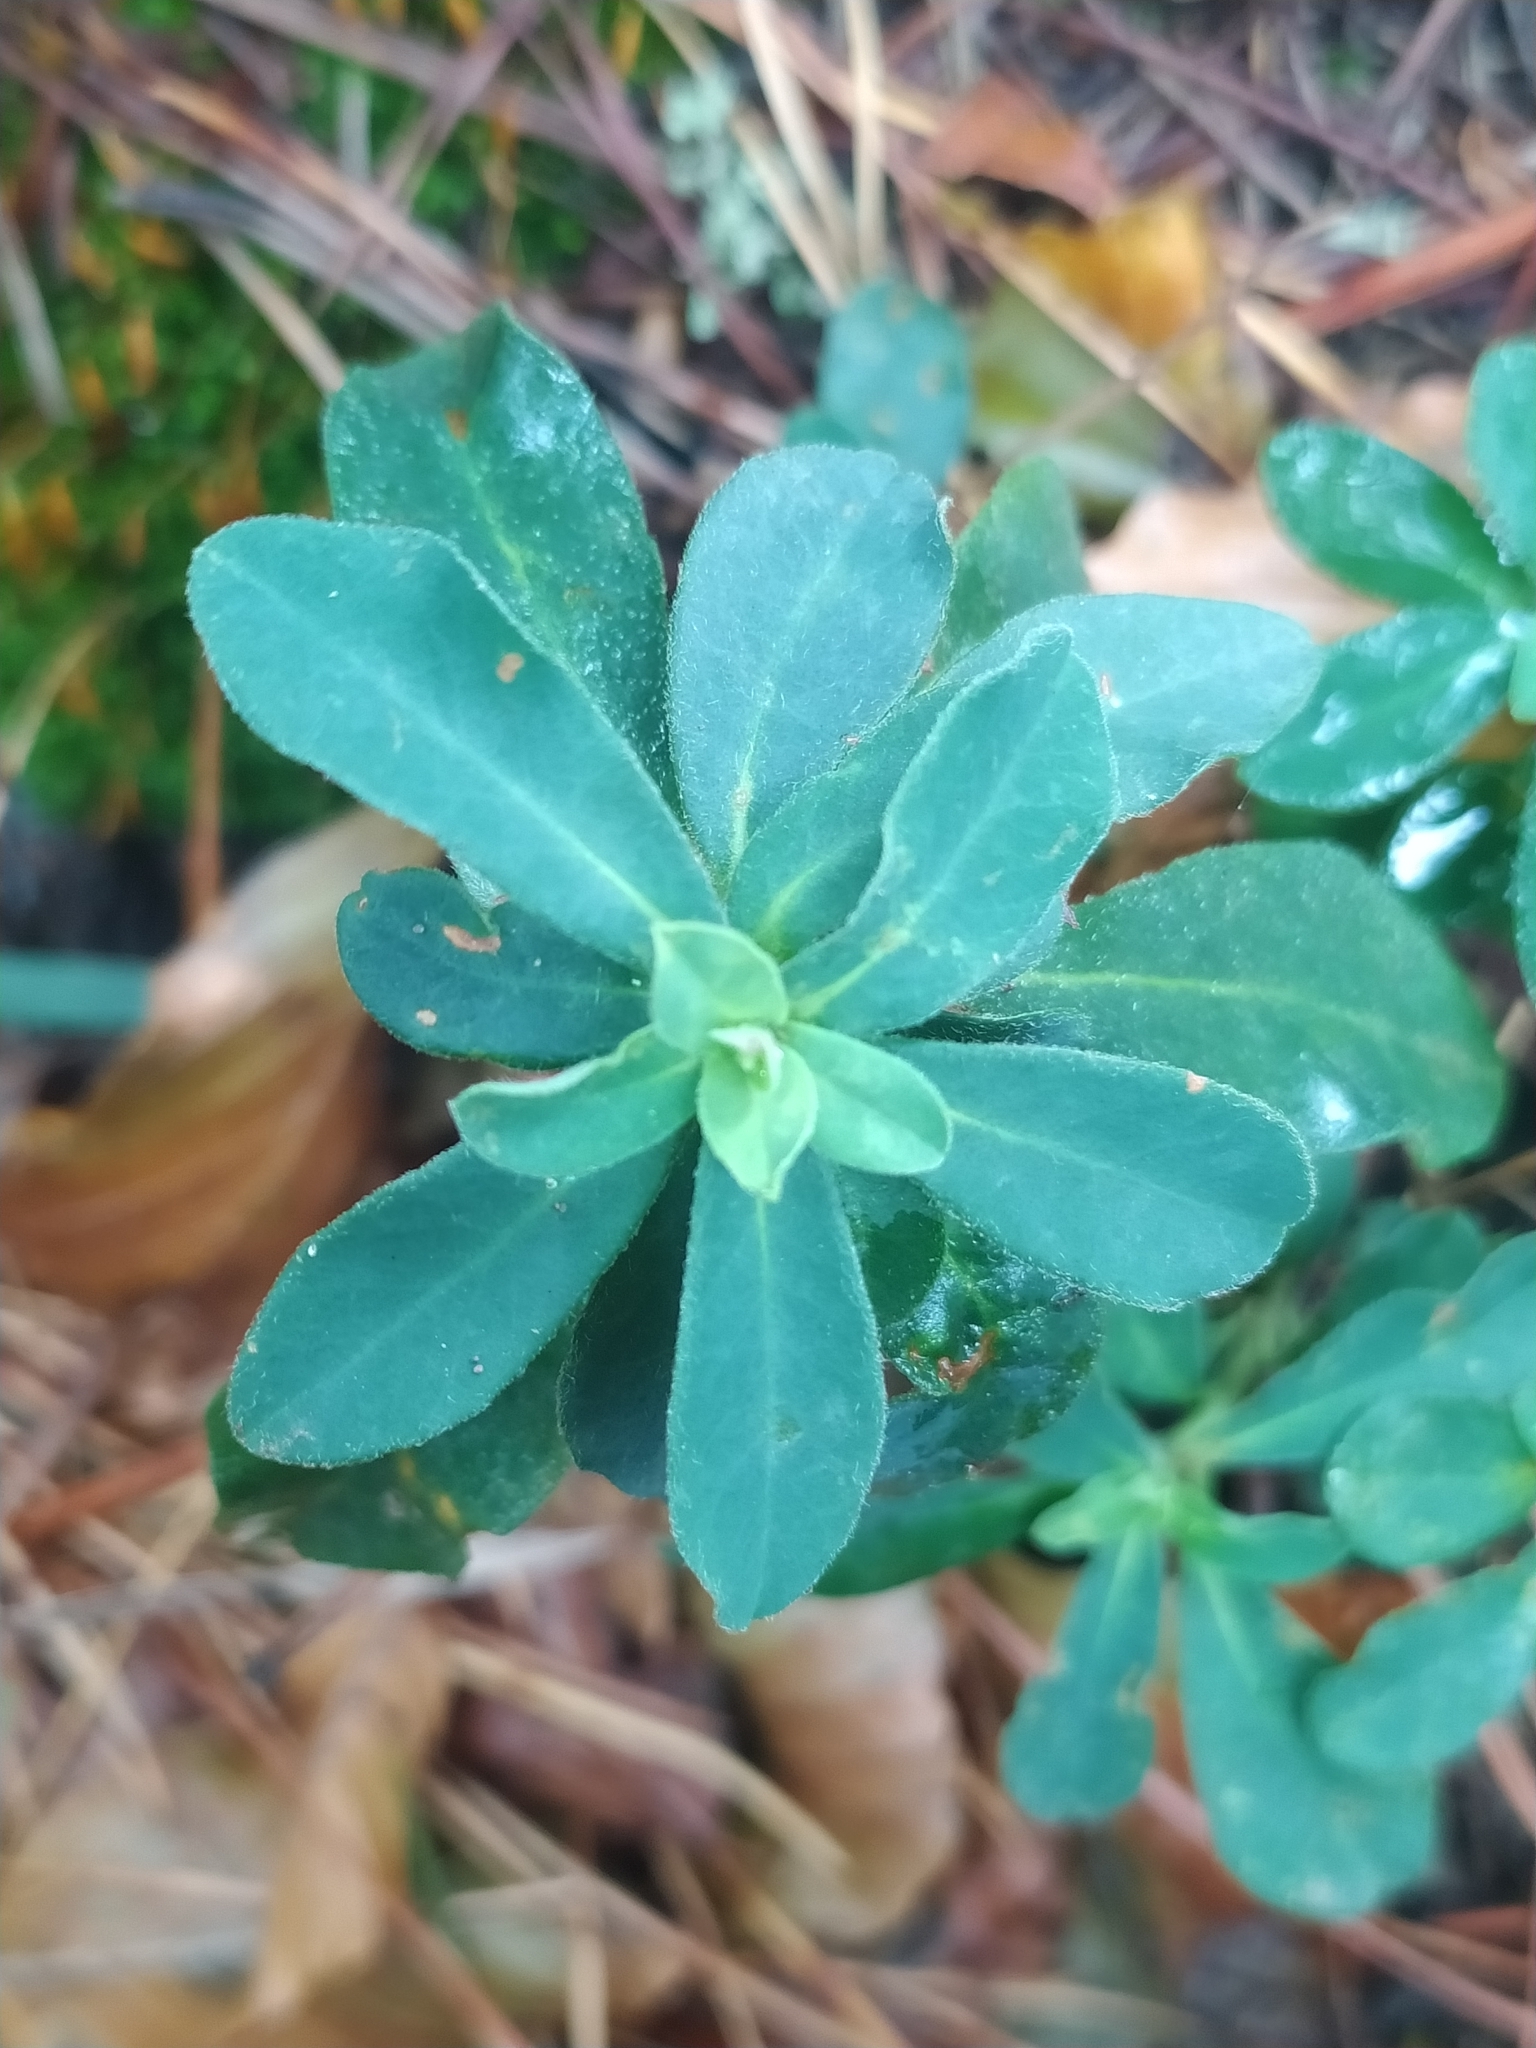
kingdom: Plantae
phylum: Tracheophyta
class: Magnoliopsida
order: Malpighiales
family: Euphorbiaceae
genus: Euphorbia
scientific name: Euphorbia amygdaloides
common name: Wood spurge
